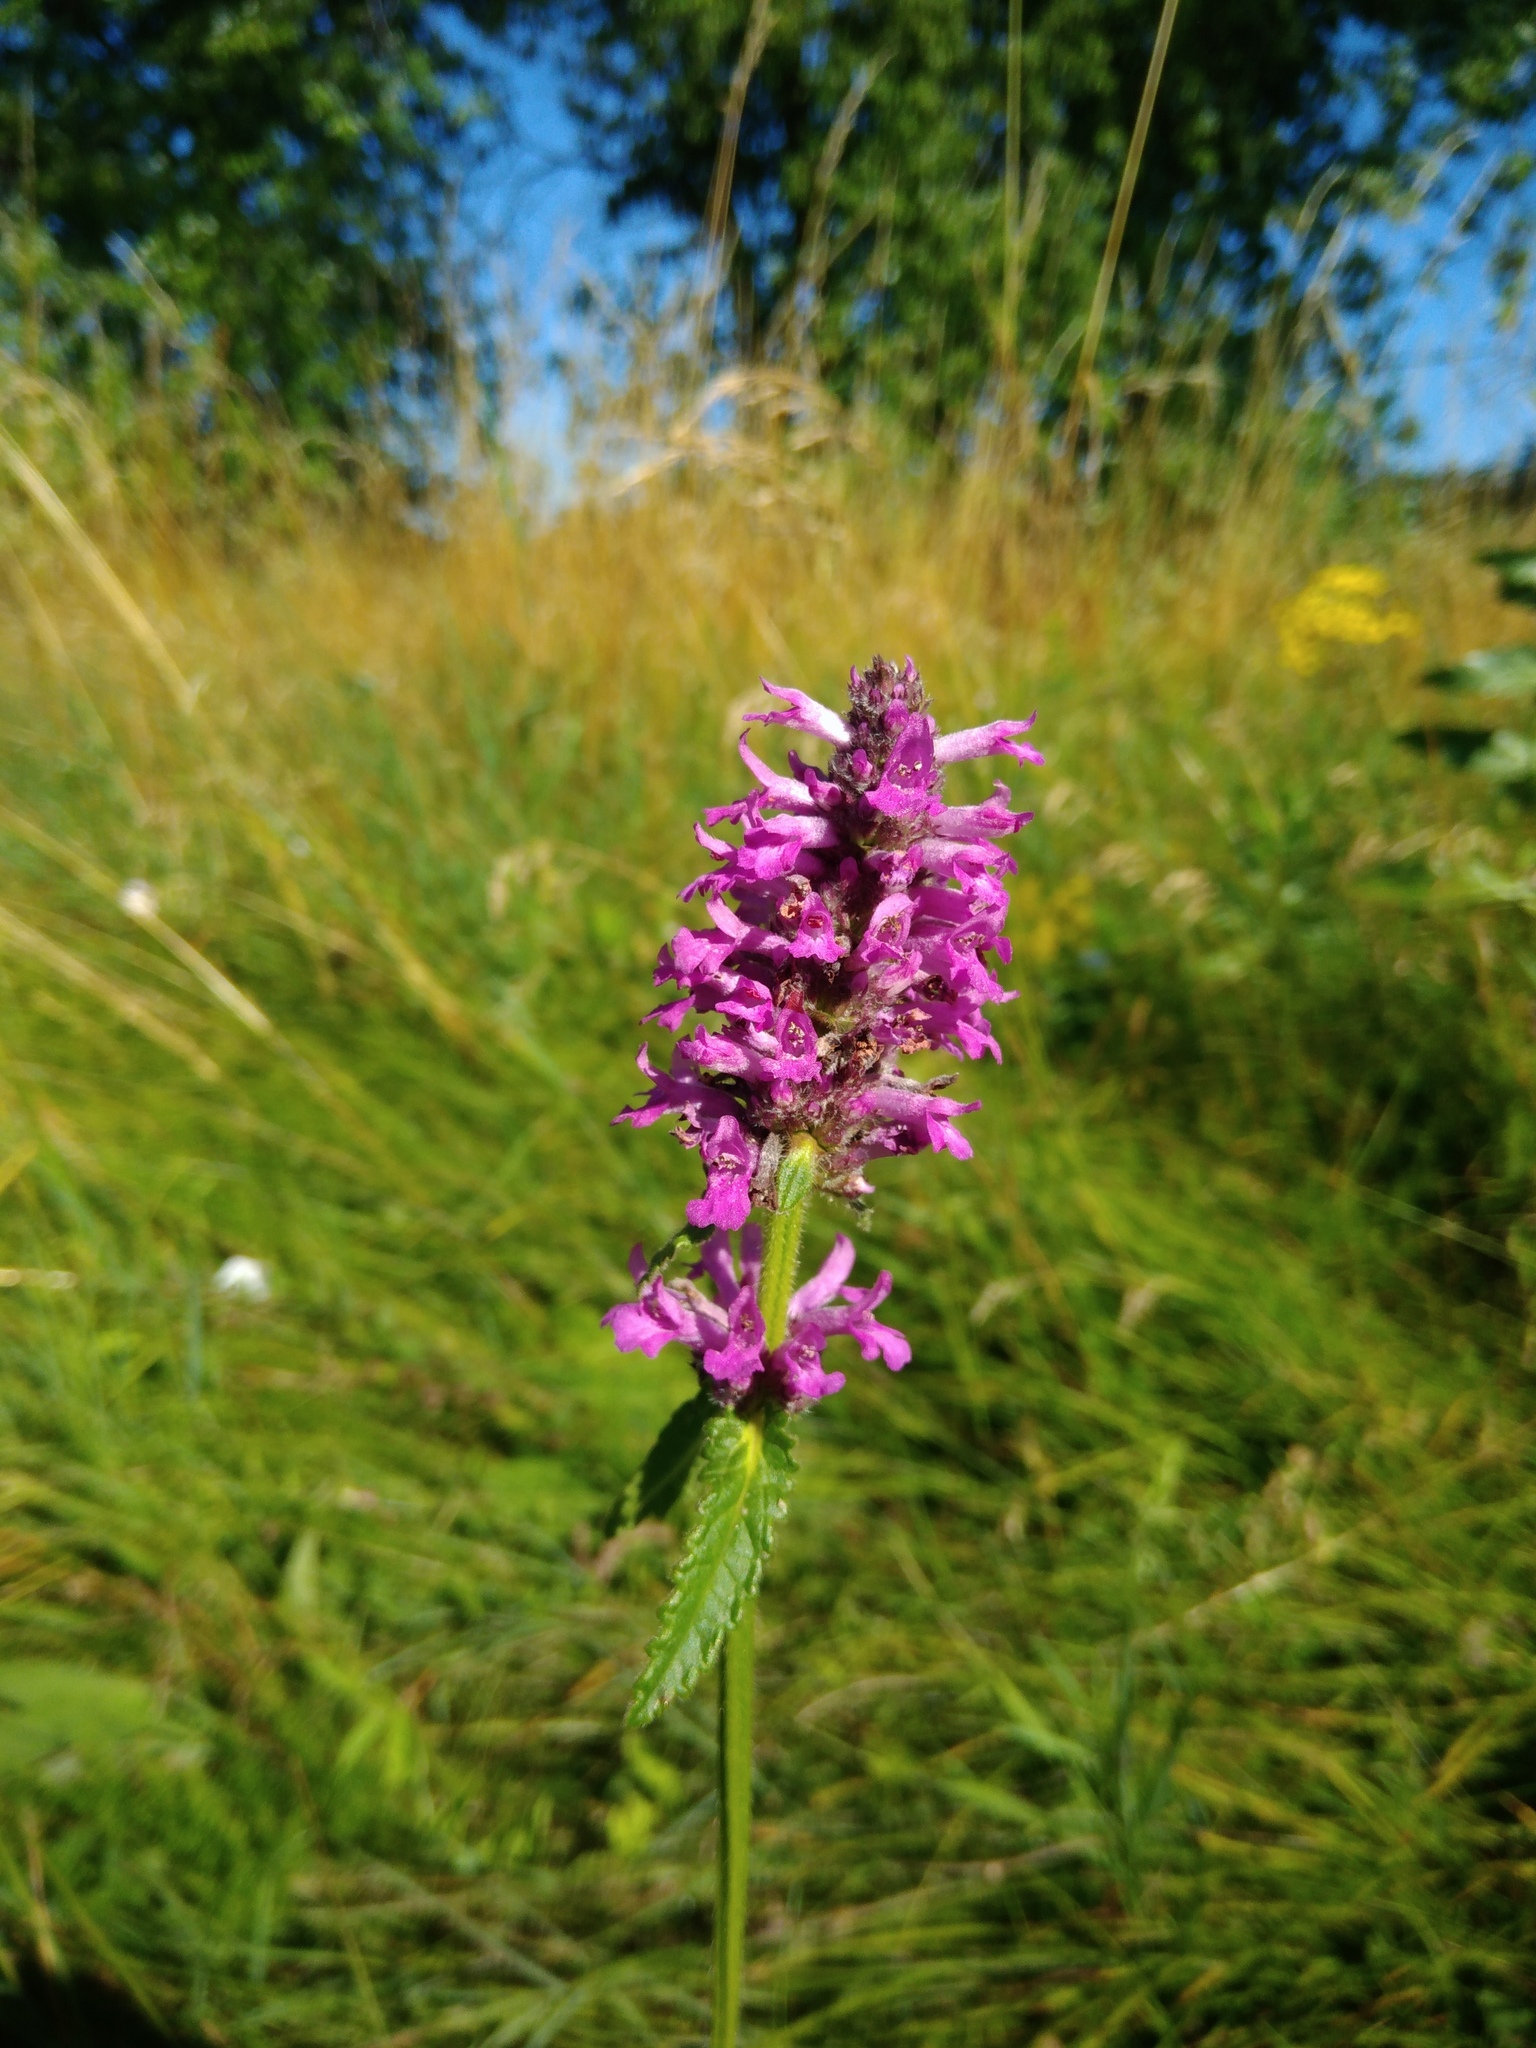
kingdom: Plantae
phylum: Tracheophyta
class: Magnoliopsida
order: Lamiales
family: Lamiaceae
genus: Betonica
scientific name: Betonica officinalis
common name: Bishop's-wort
